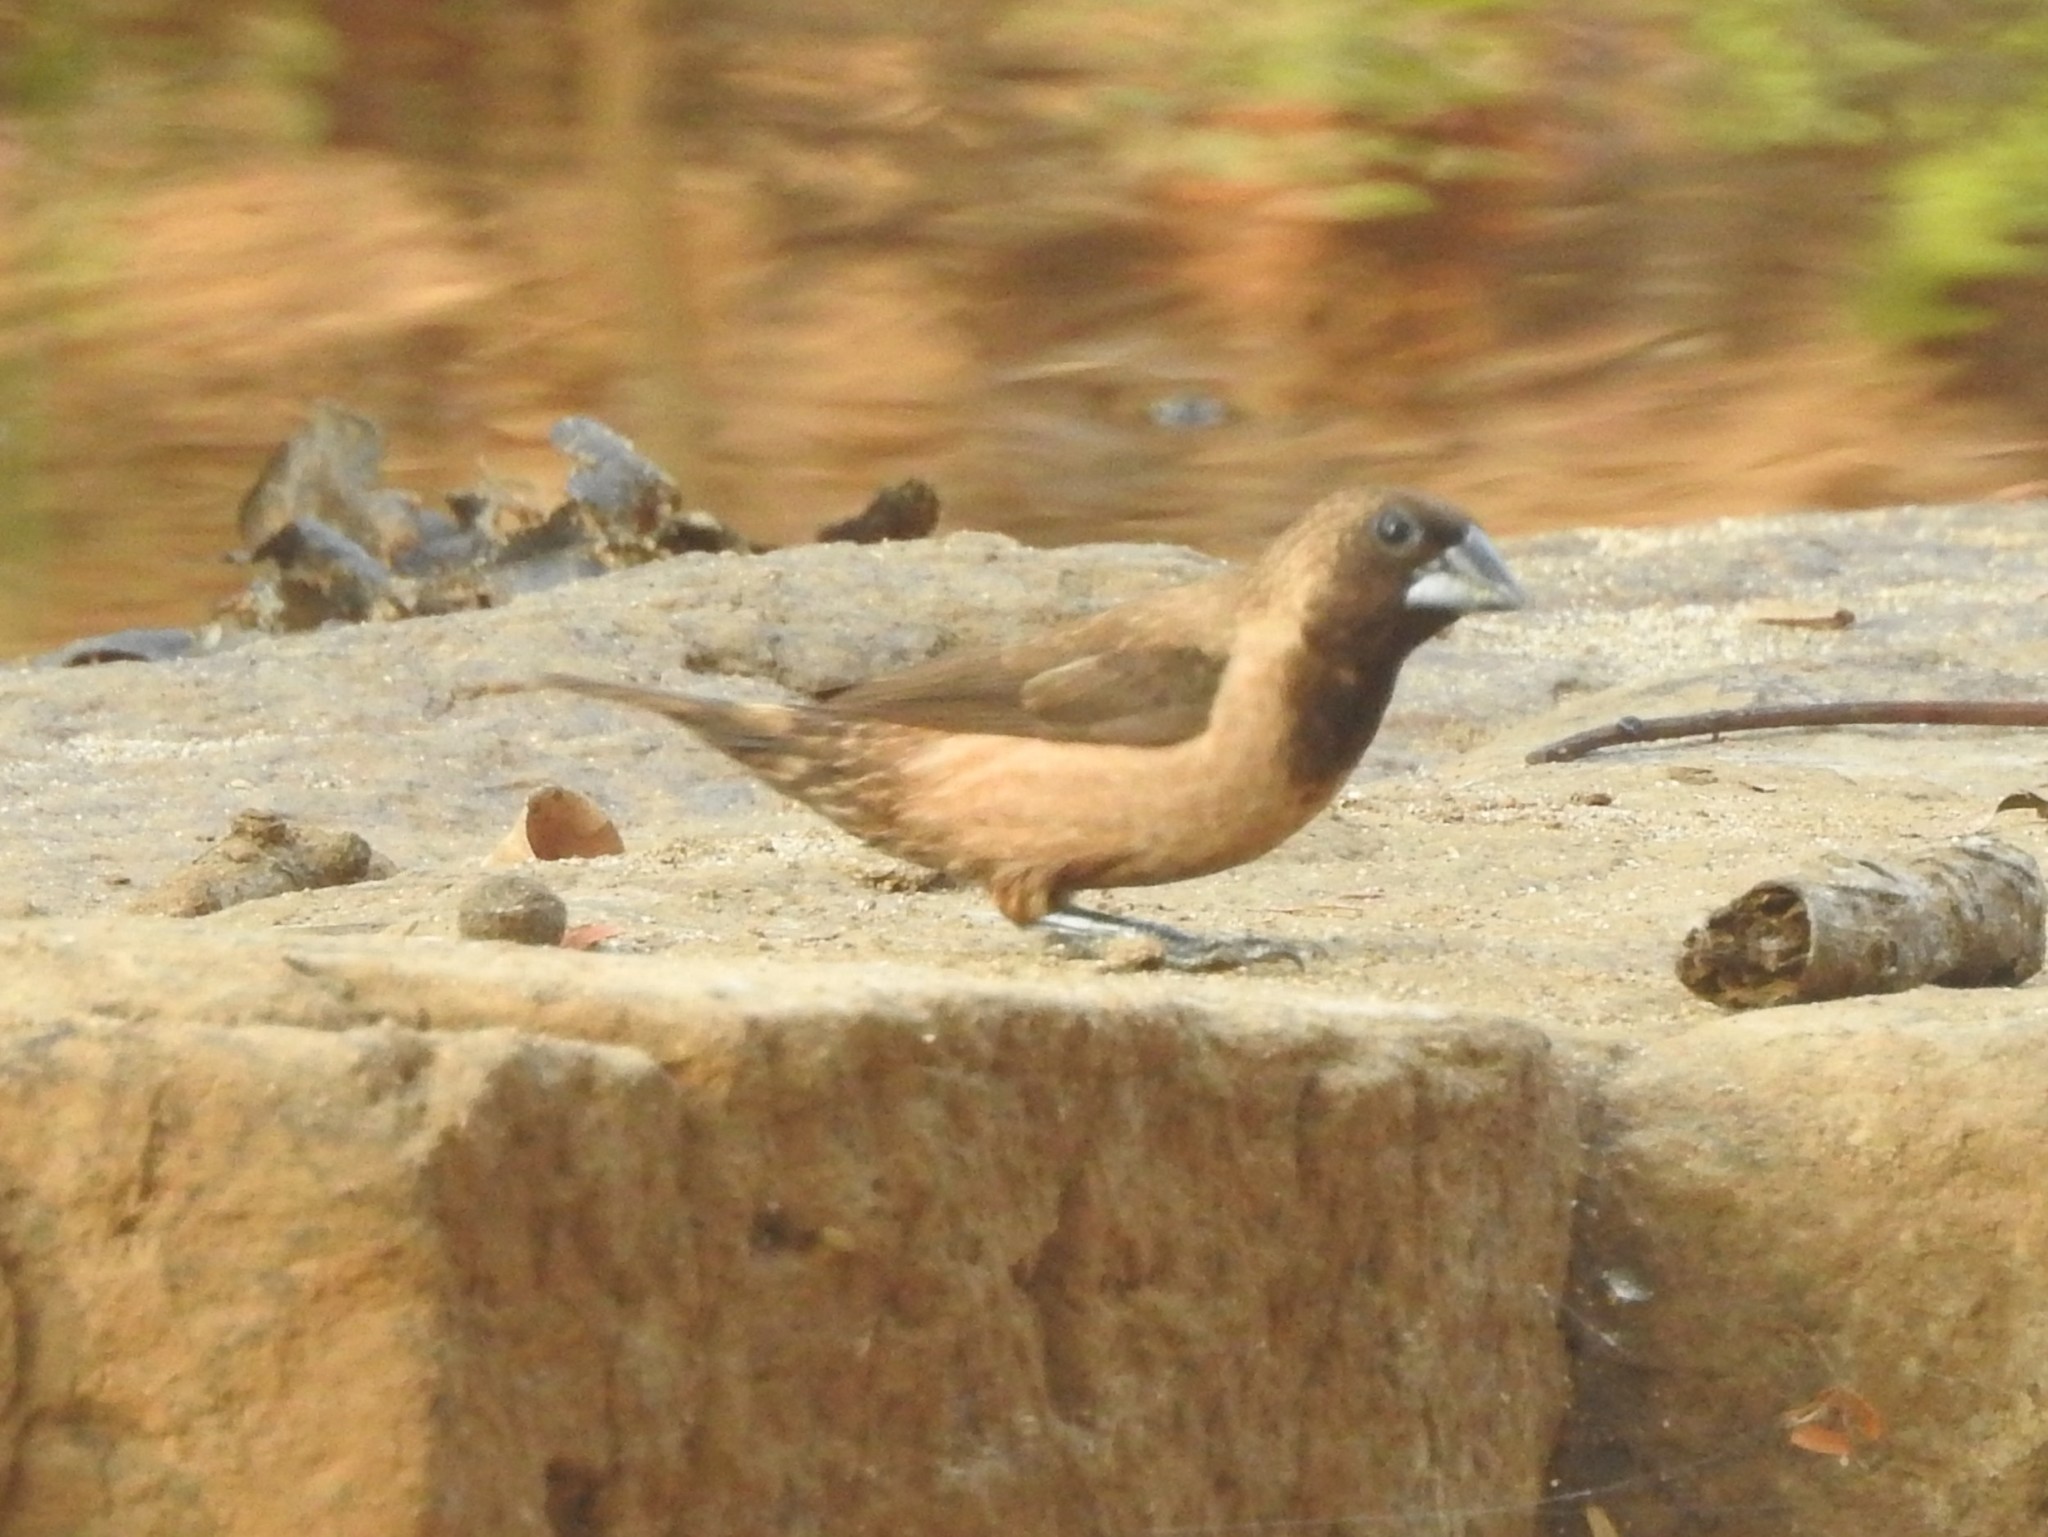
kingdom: Animalia
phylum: Chordata
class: Aves
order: Passeriformes
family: Estrildidae
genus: Lonchura
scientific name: Lonchura kelaarti
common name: Black-throated munia
